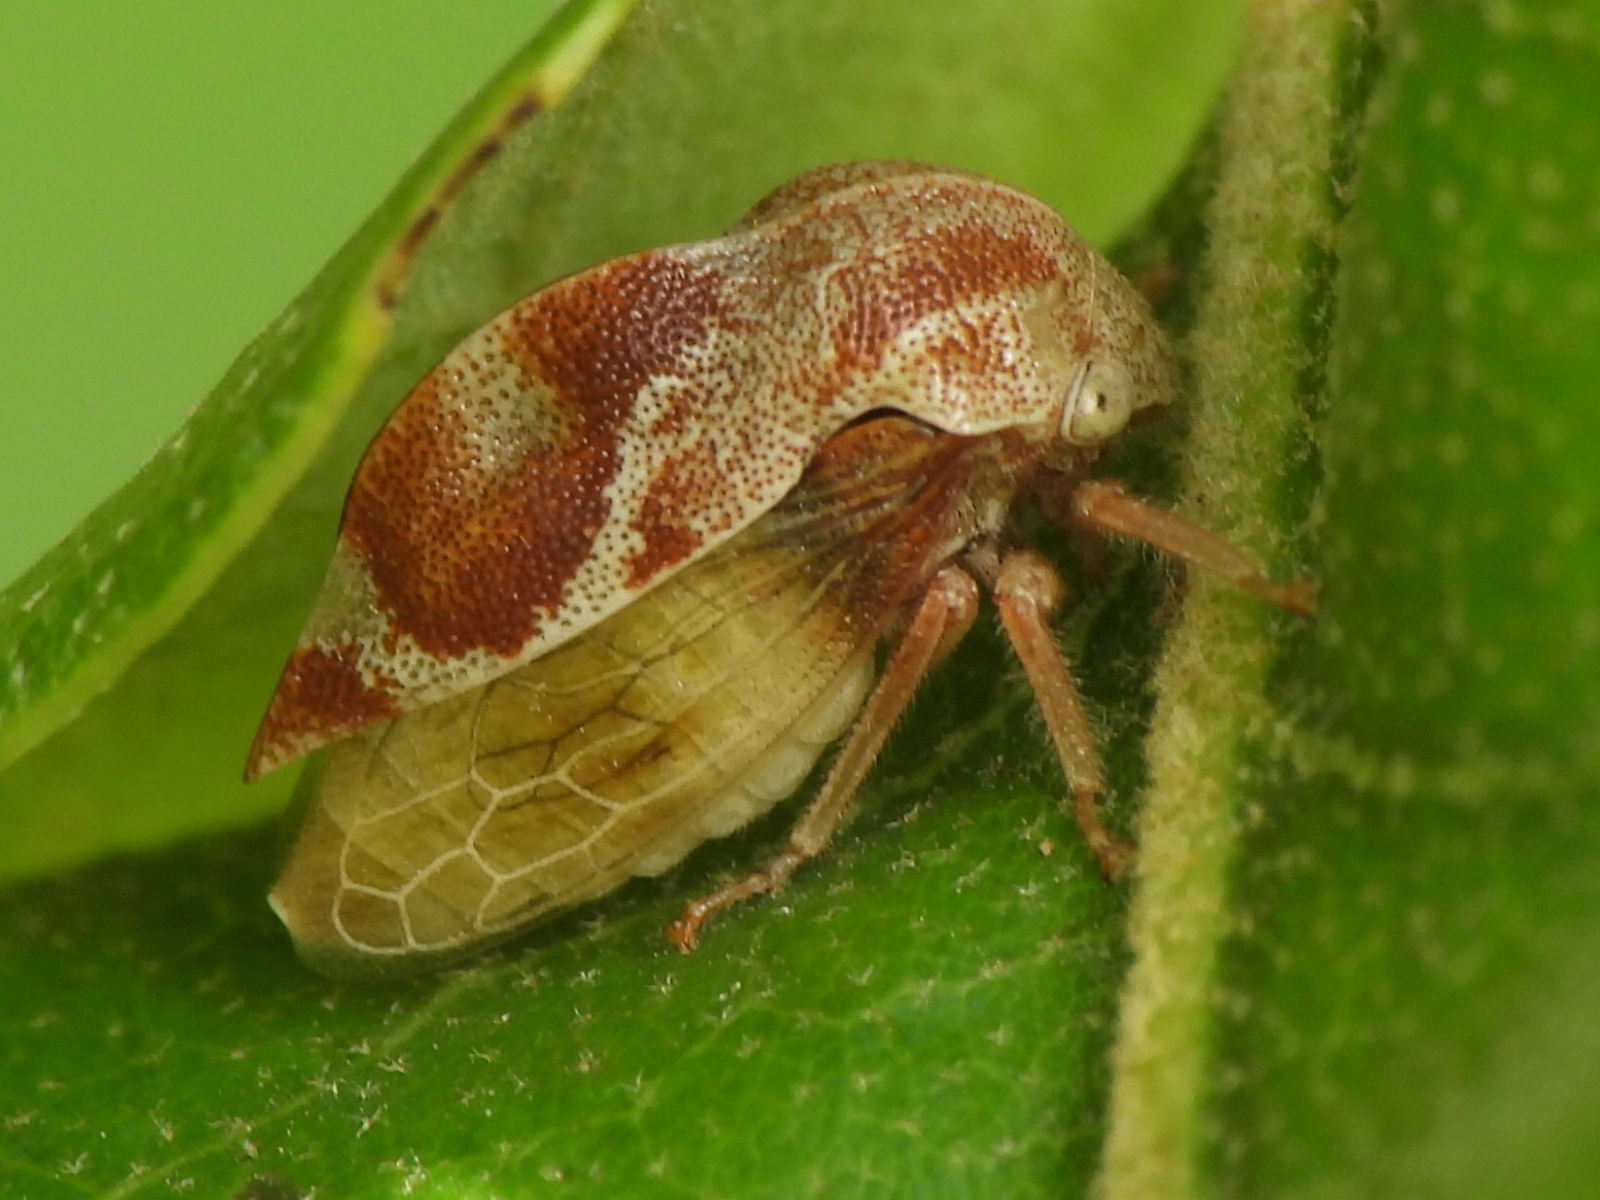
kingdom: Animalia
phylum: Arthropoda
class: Insecta
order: Hemiptera
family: Membracidae
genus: Xantholobus
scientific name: Xantholobus mutica
